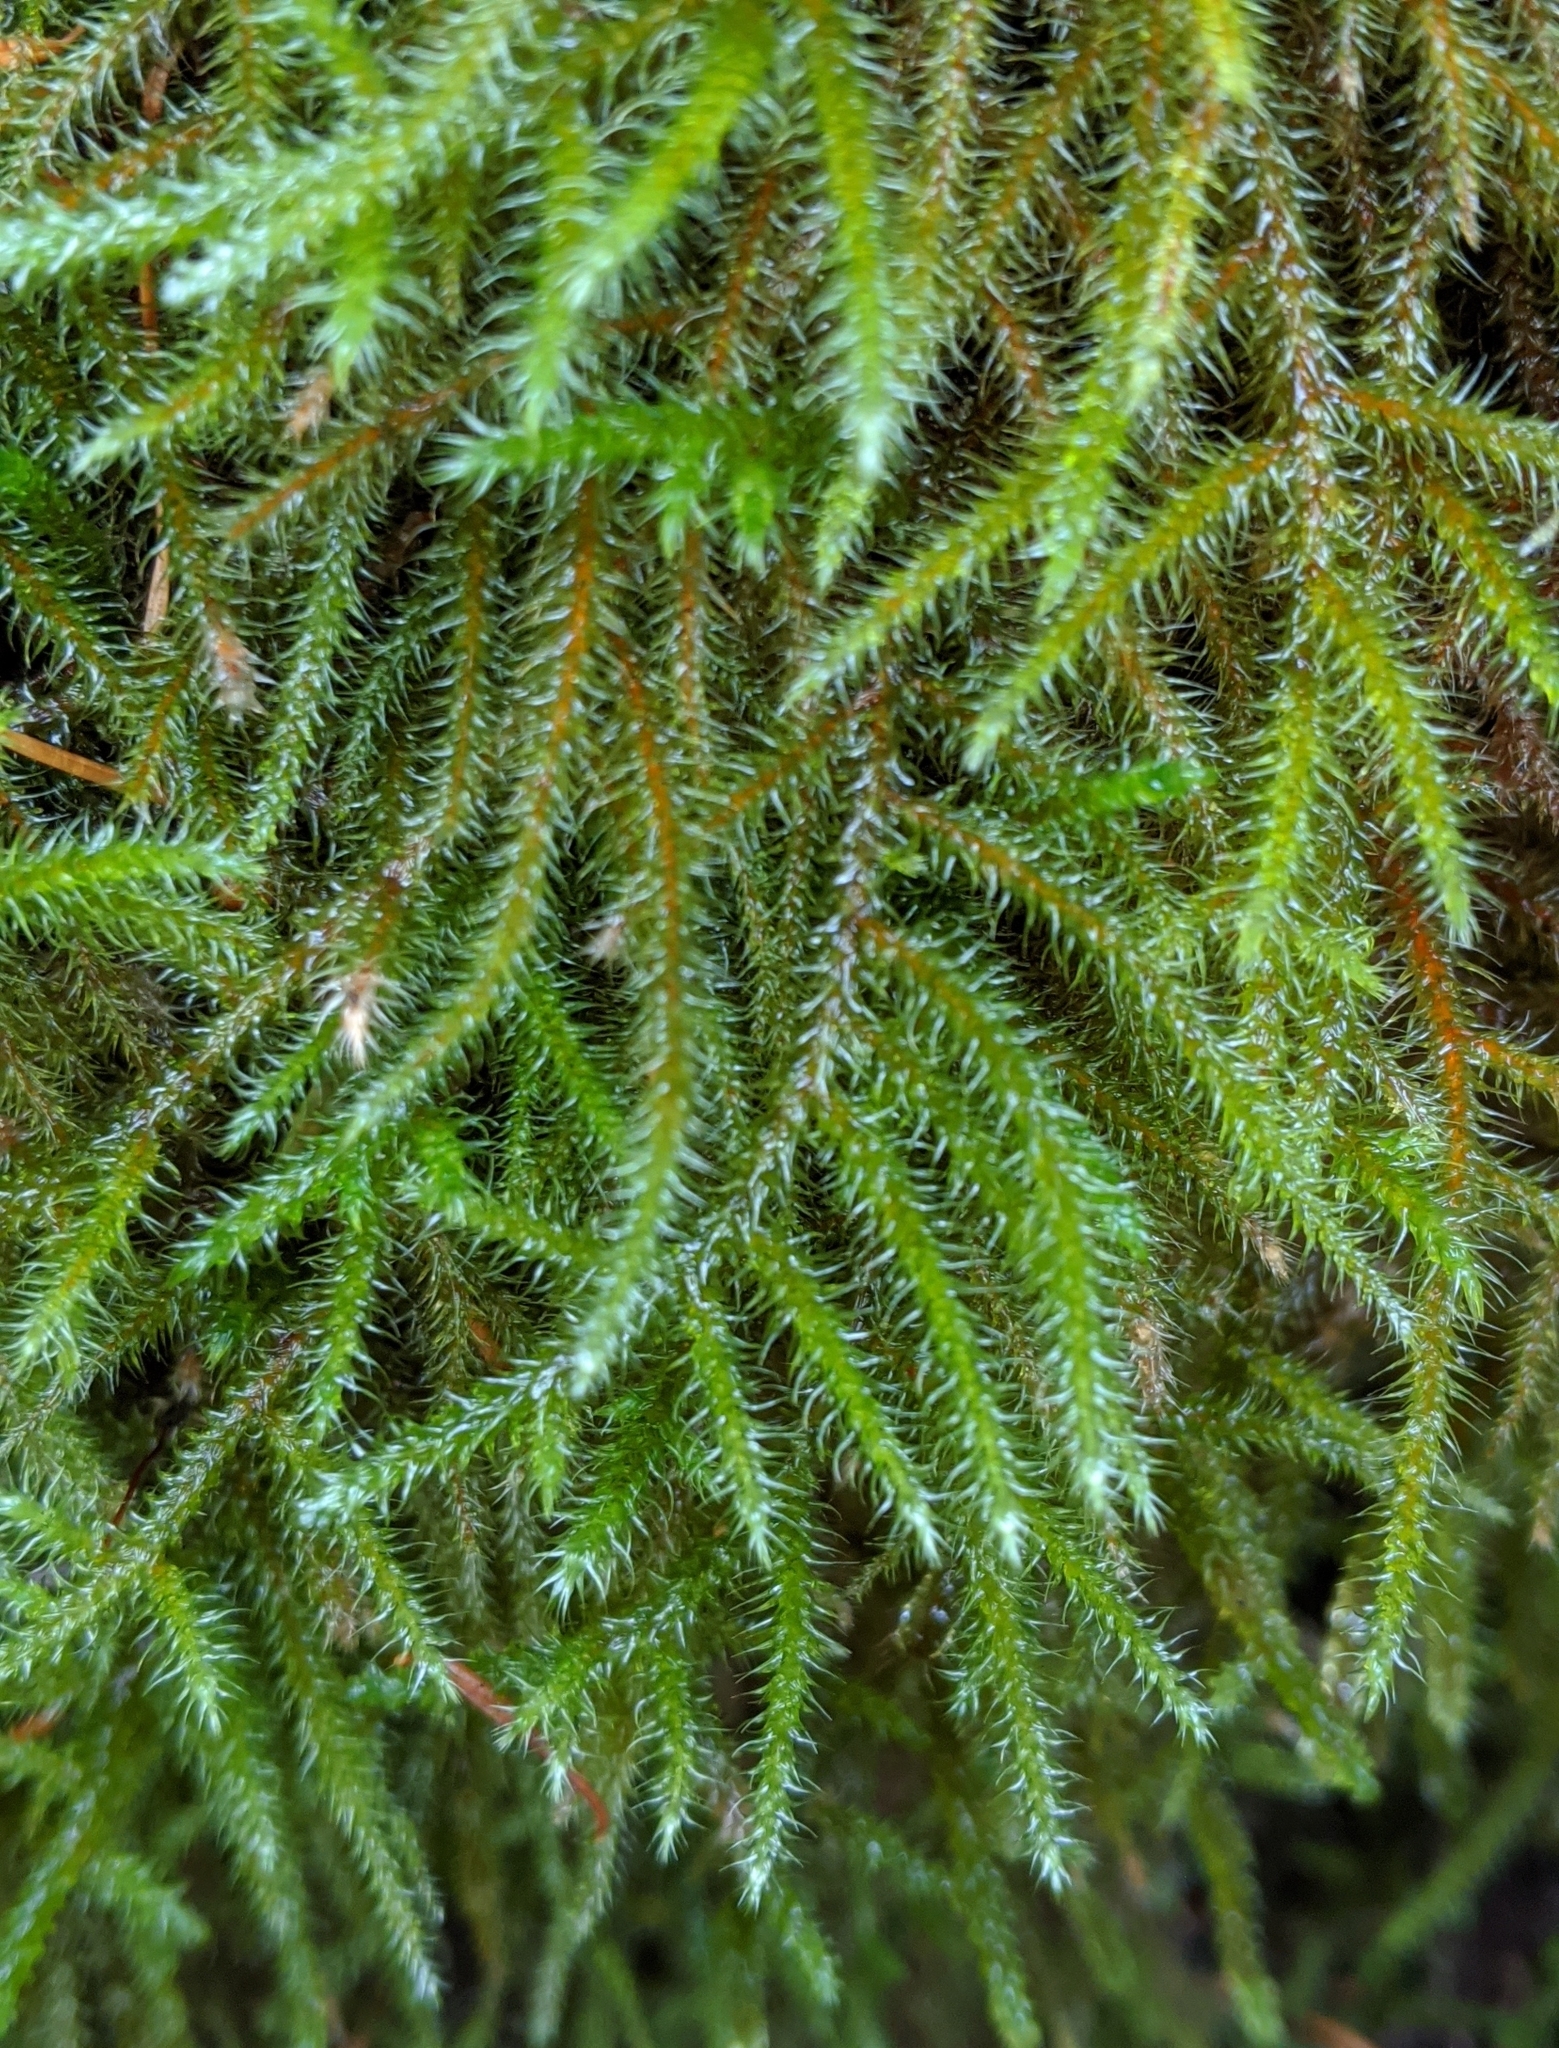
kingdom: Plantae
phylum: Bryophyta
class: Bryopsida
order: Hypnales
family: Hylocomiaceae
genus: Rhytidiadelphus
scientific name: Rhytidiadelphus loreus
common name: Lanky moss
